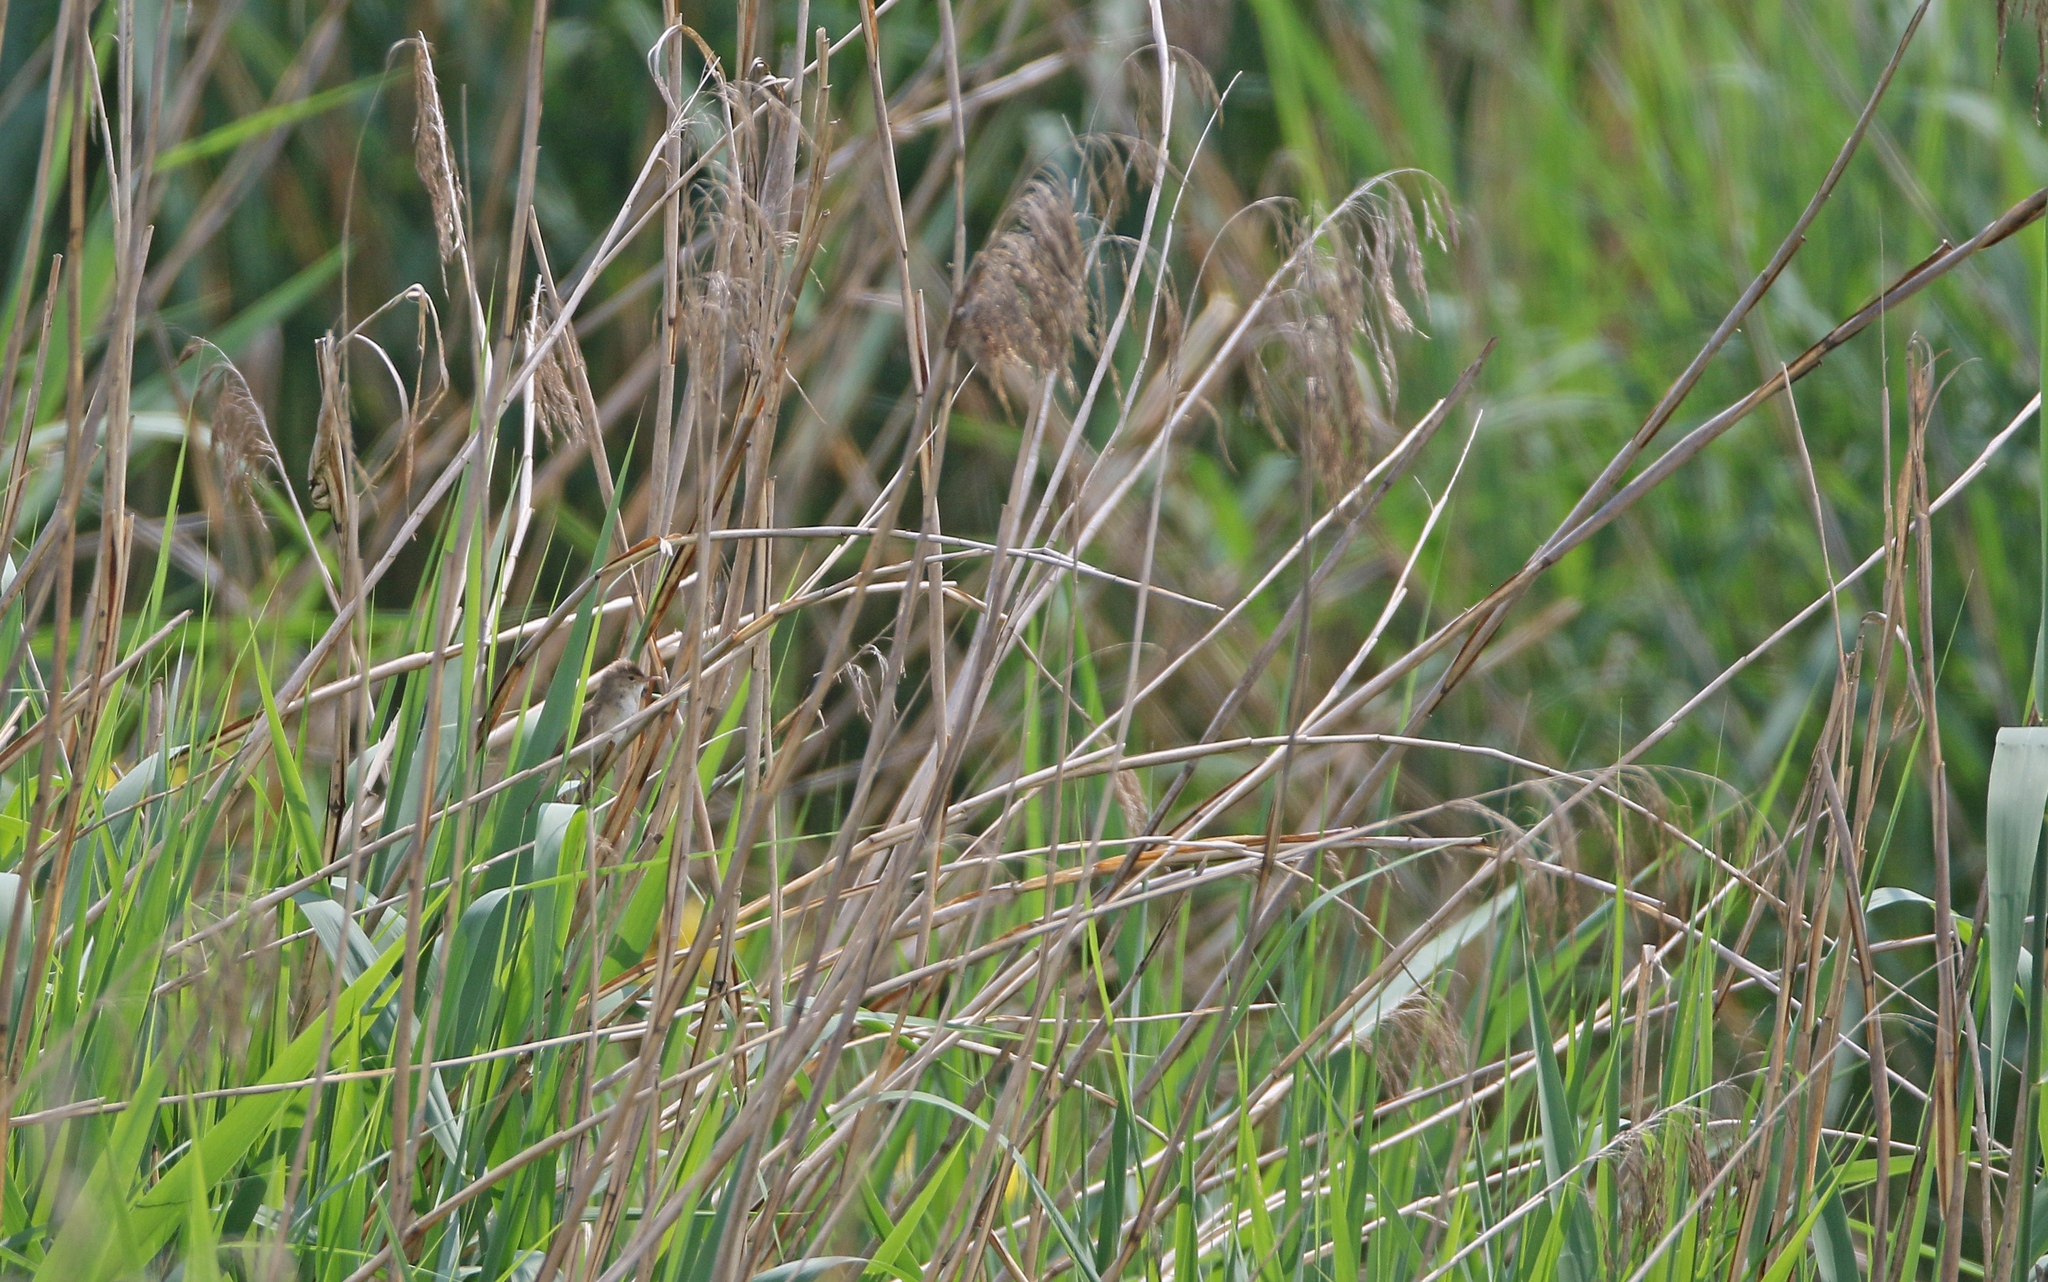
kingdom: Animalia
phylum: Chordata
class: Aves
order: Passeriformes
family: Acrocephalidae
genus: Acrocephalus
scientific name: Acrocephalus scirpaceus
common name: Eurasian reed warbler
